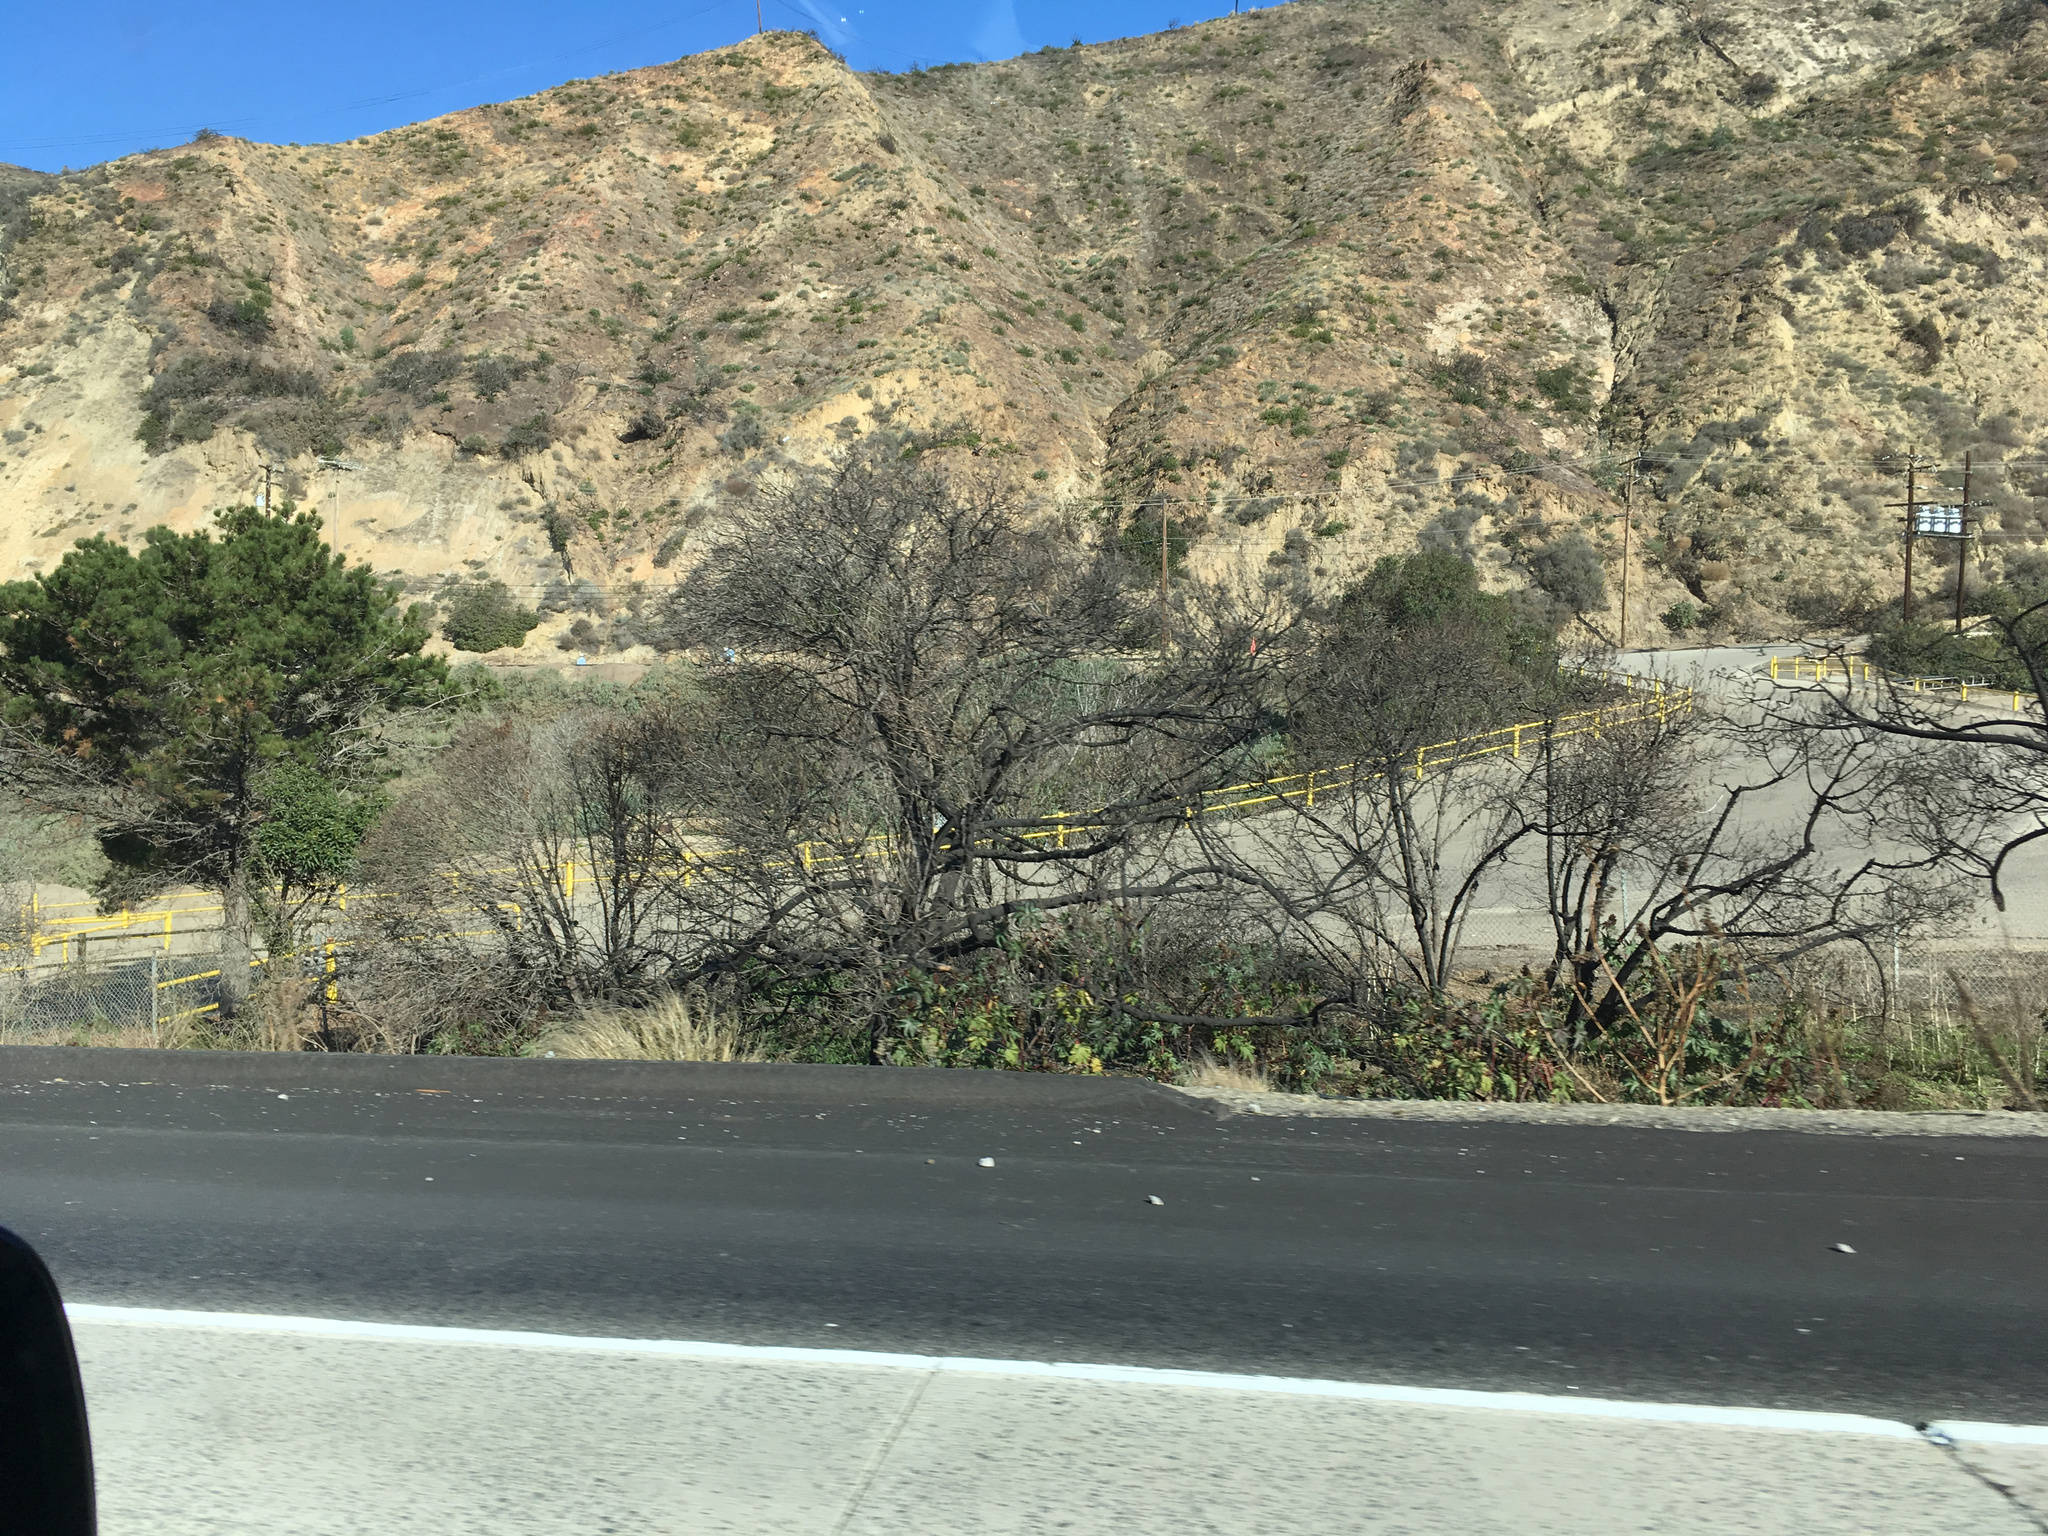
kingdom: Plantae
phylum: Tracheophyta
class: Magnoliopsida
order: Lamiales
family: Scrophulariaceae
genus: Myoporum
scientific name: Myoporum laetum
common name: Ngaio tree
